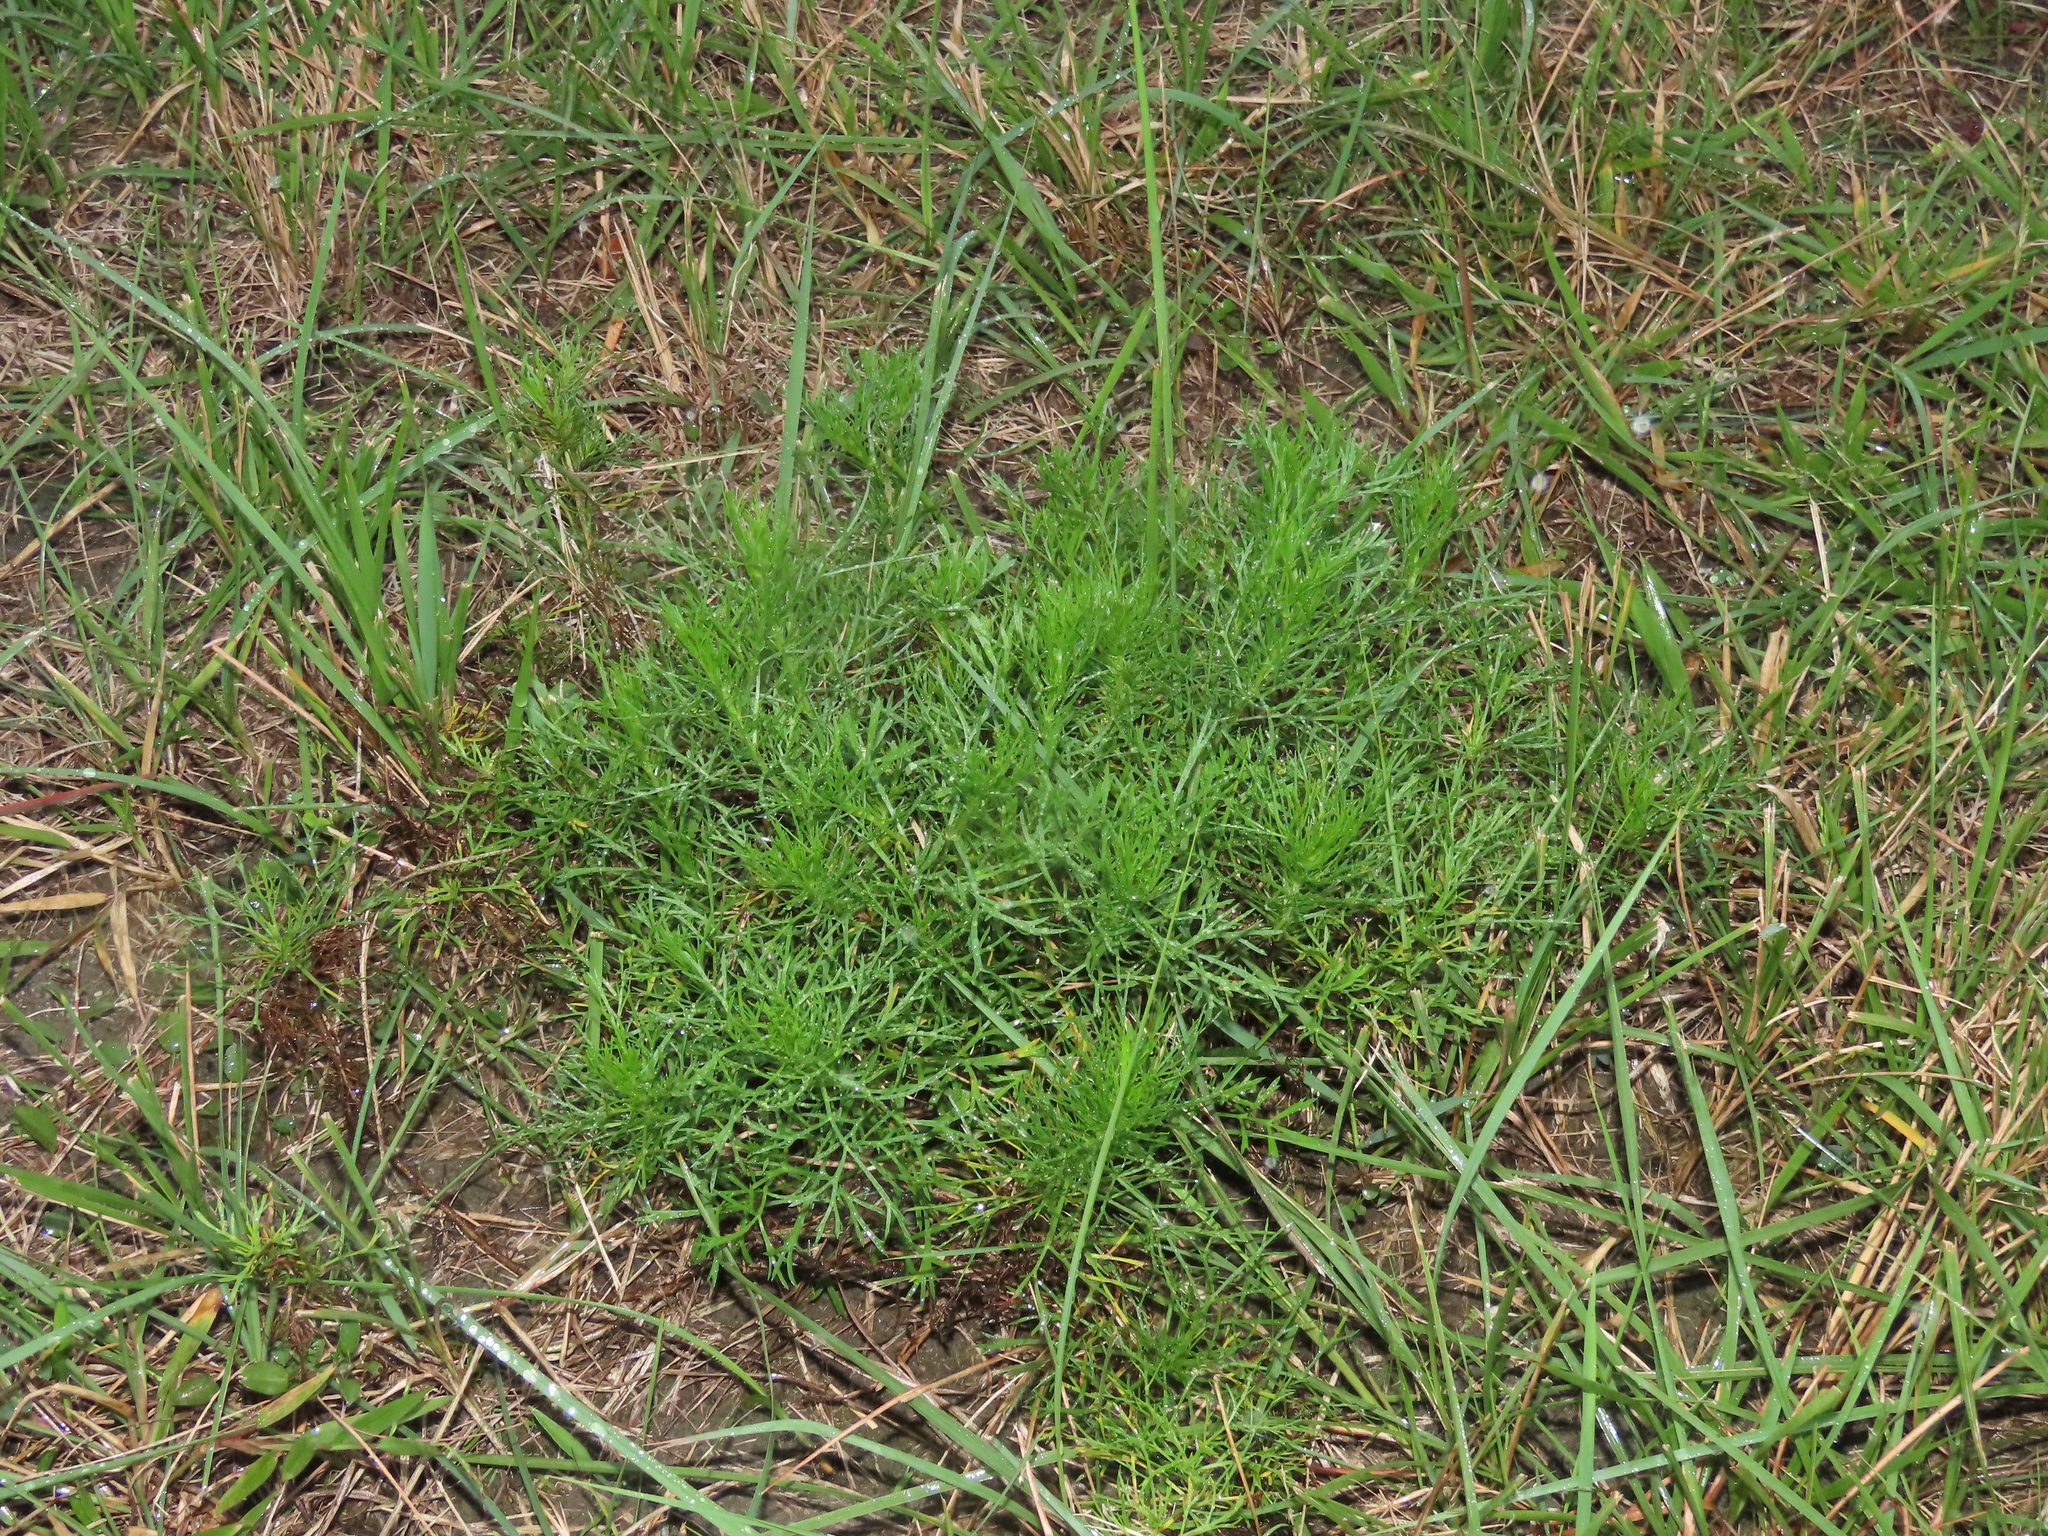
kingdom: Plantae
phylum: Tracheophyta
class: Magnoliopsida
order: Asterales
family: Asteraceae
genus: Artemisia
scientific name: Artemisia capillaris
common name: Yin-chen wormwood
